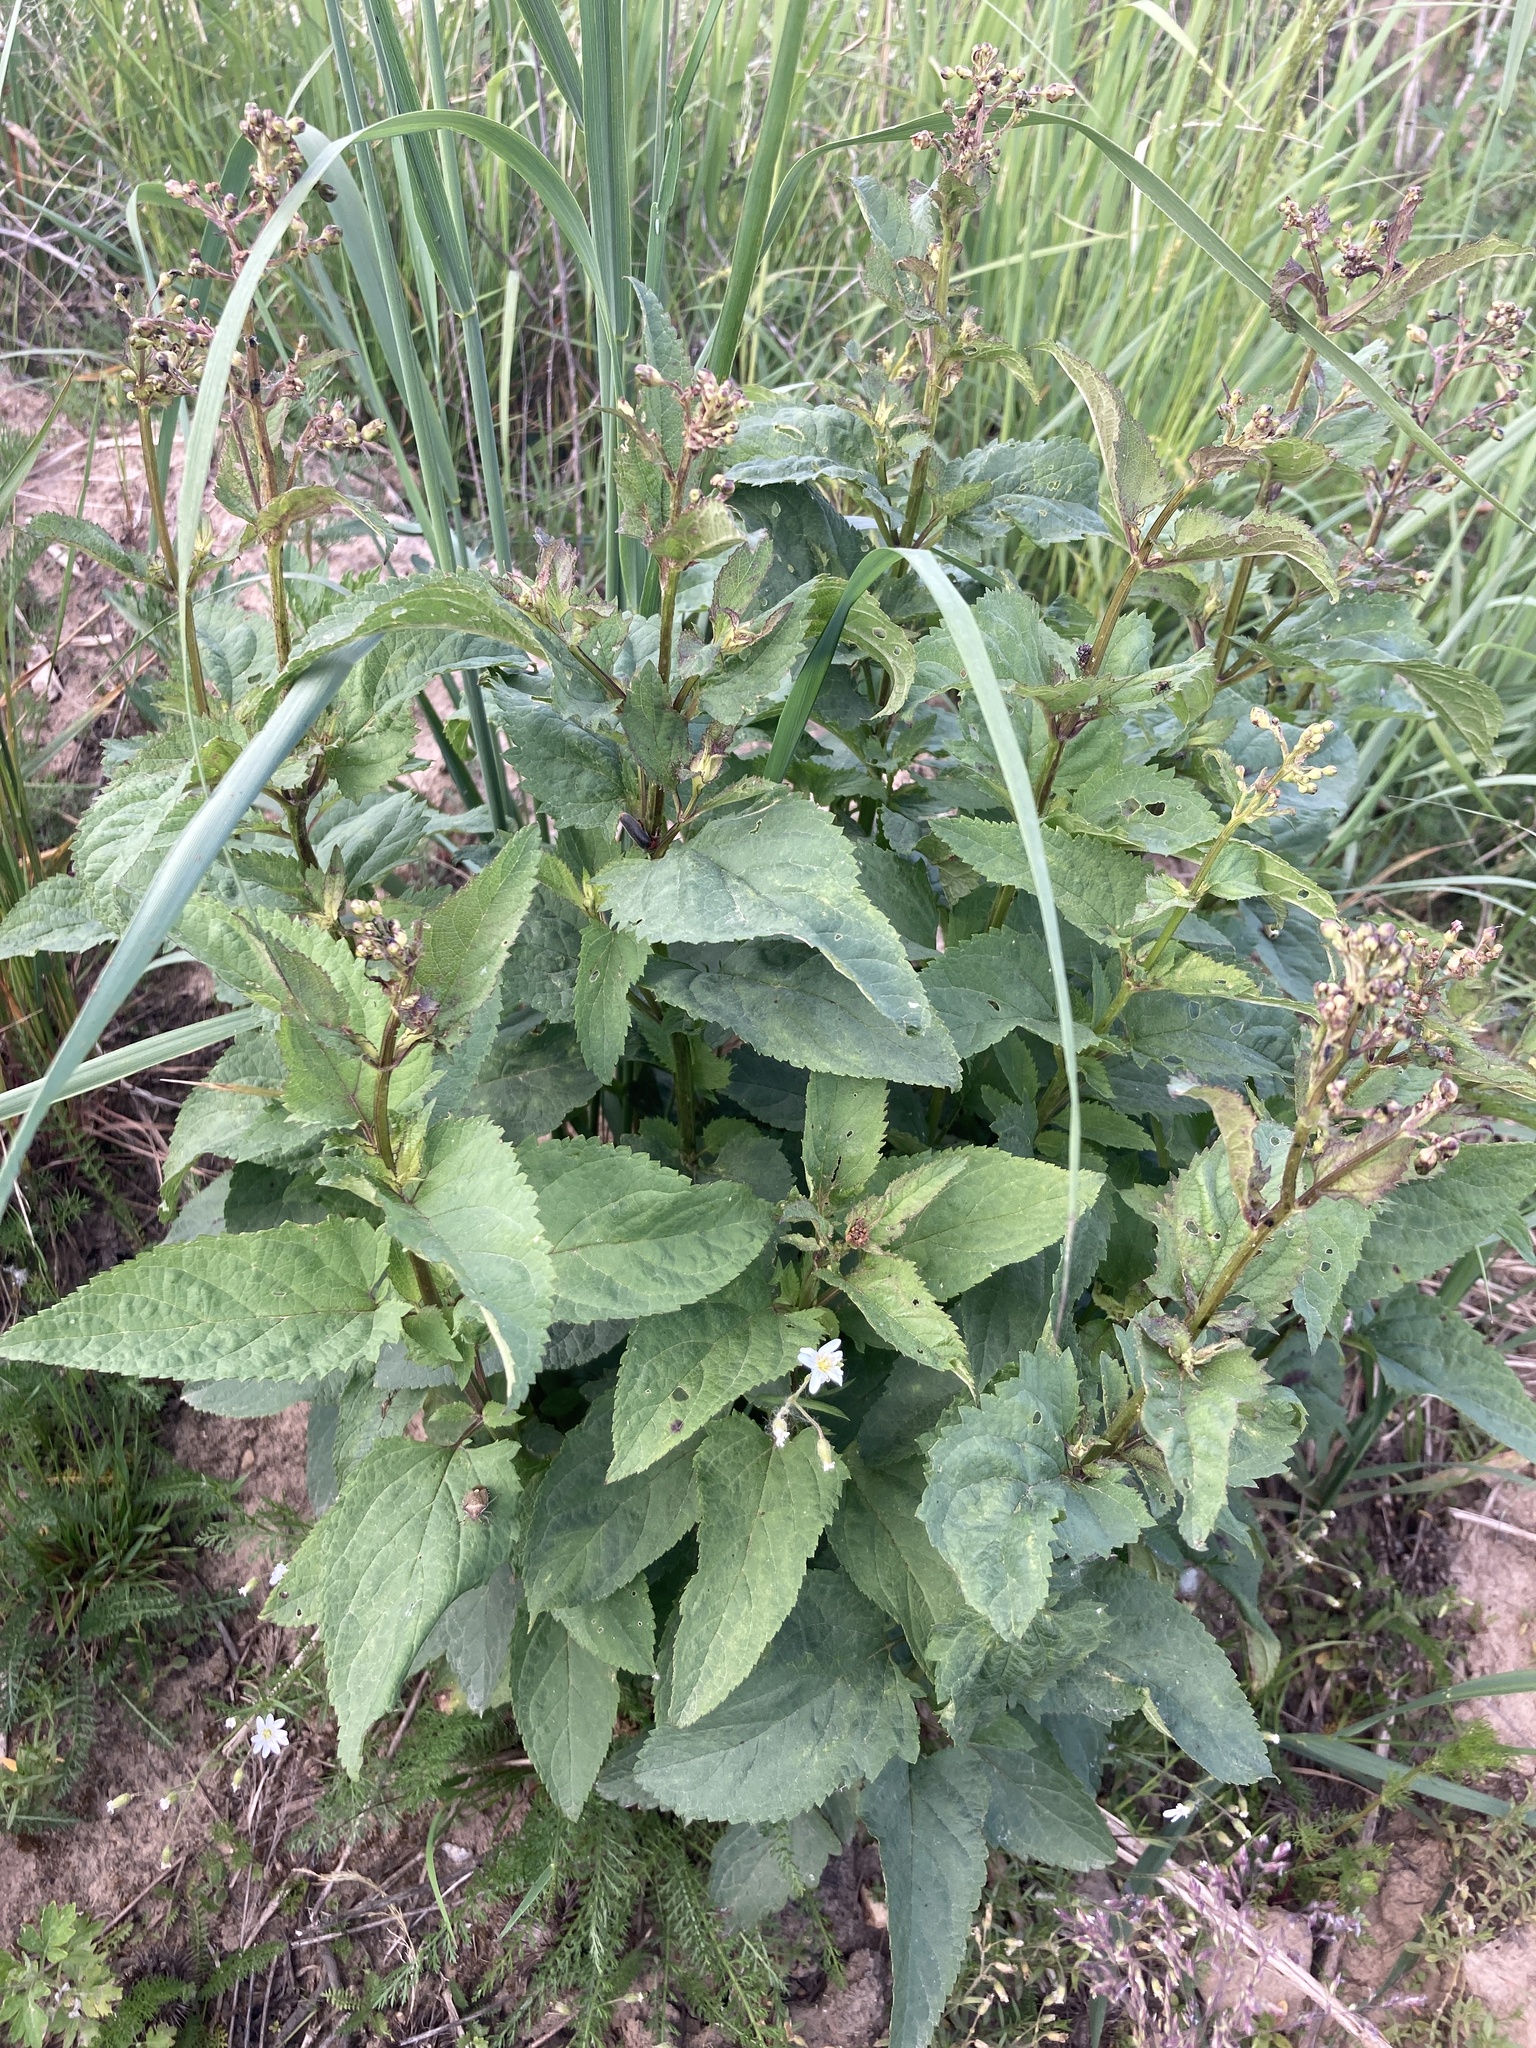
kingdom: Plantae
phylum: Tracheophyta
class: Magnoliopsida
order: Lamiales
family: Scrophulariaceae
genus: Scrophularia
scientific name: Scrophularia nodosa
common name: Common figwort
